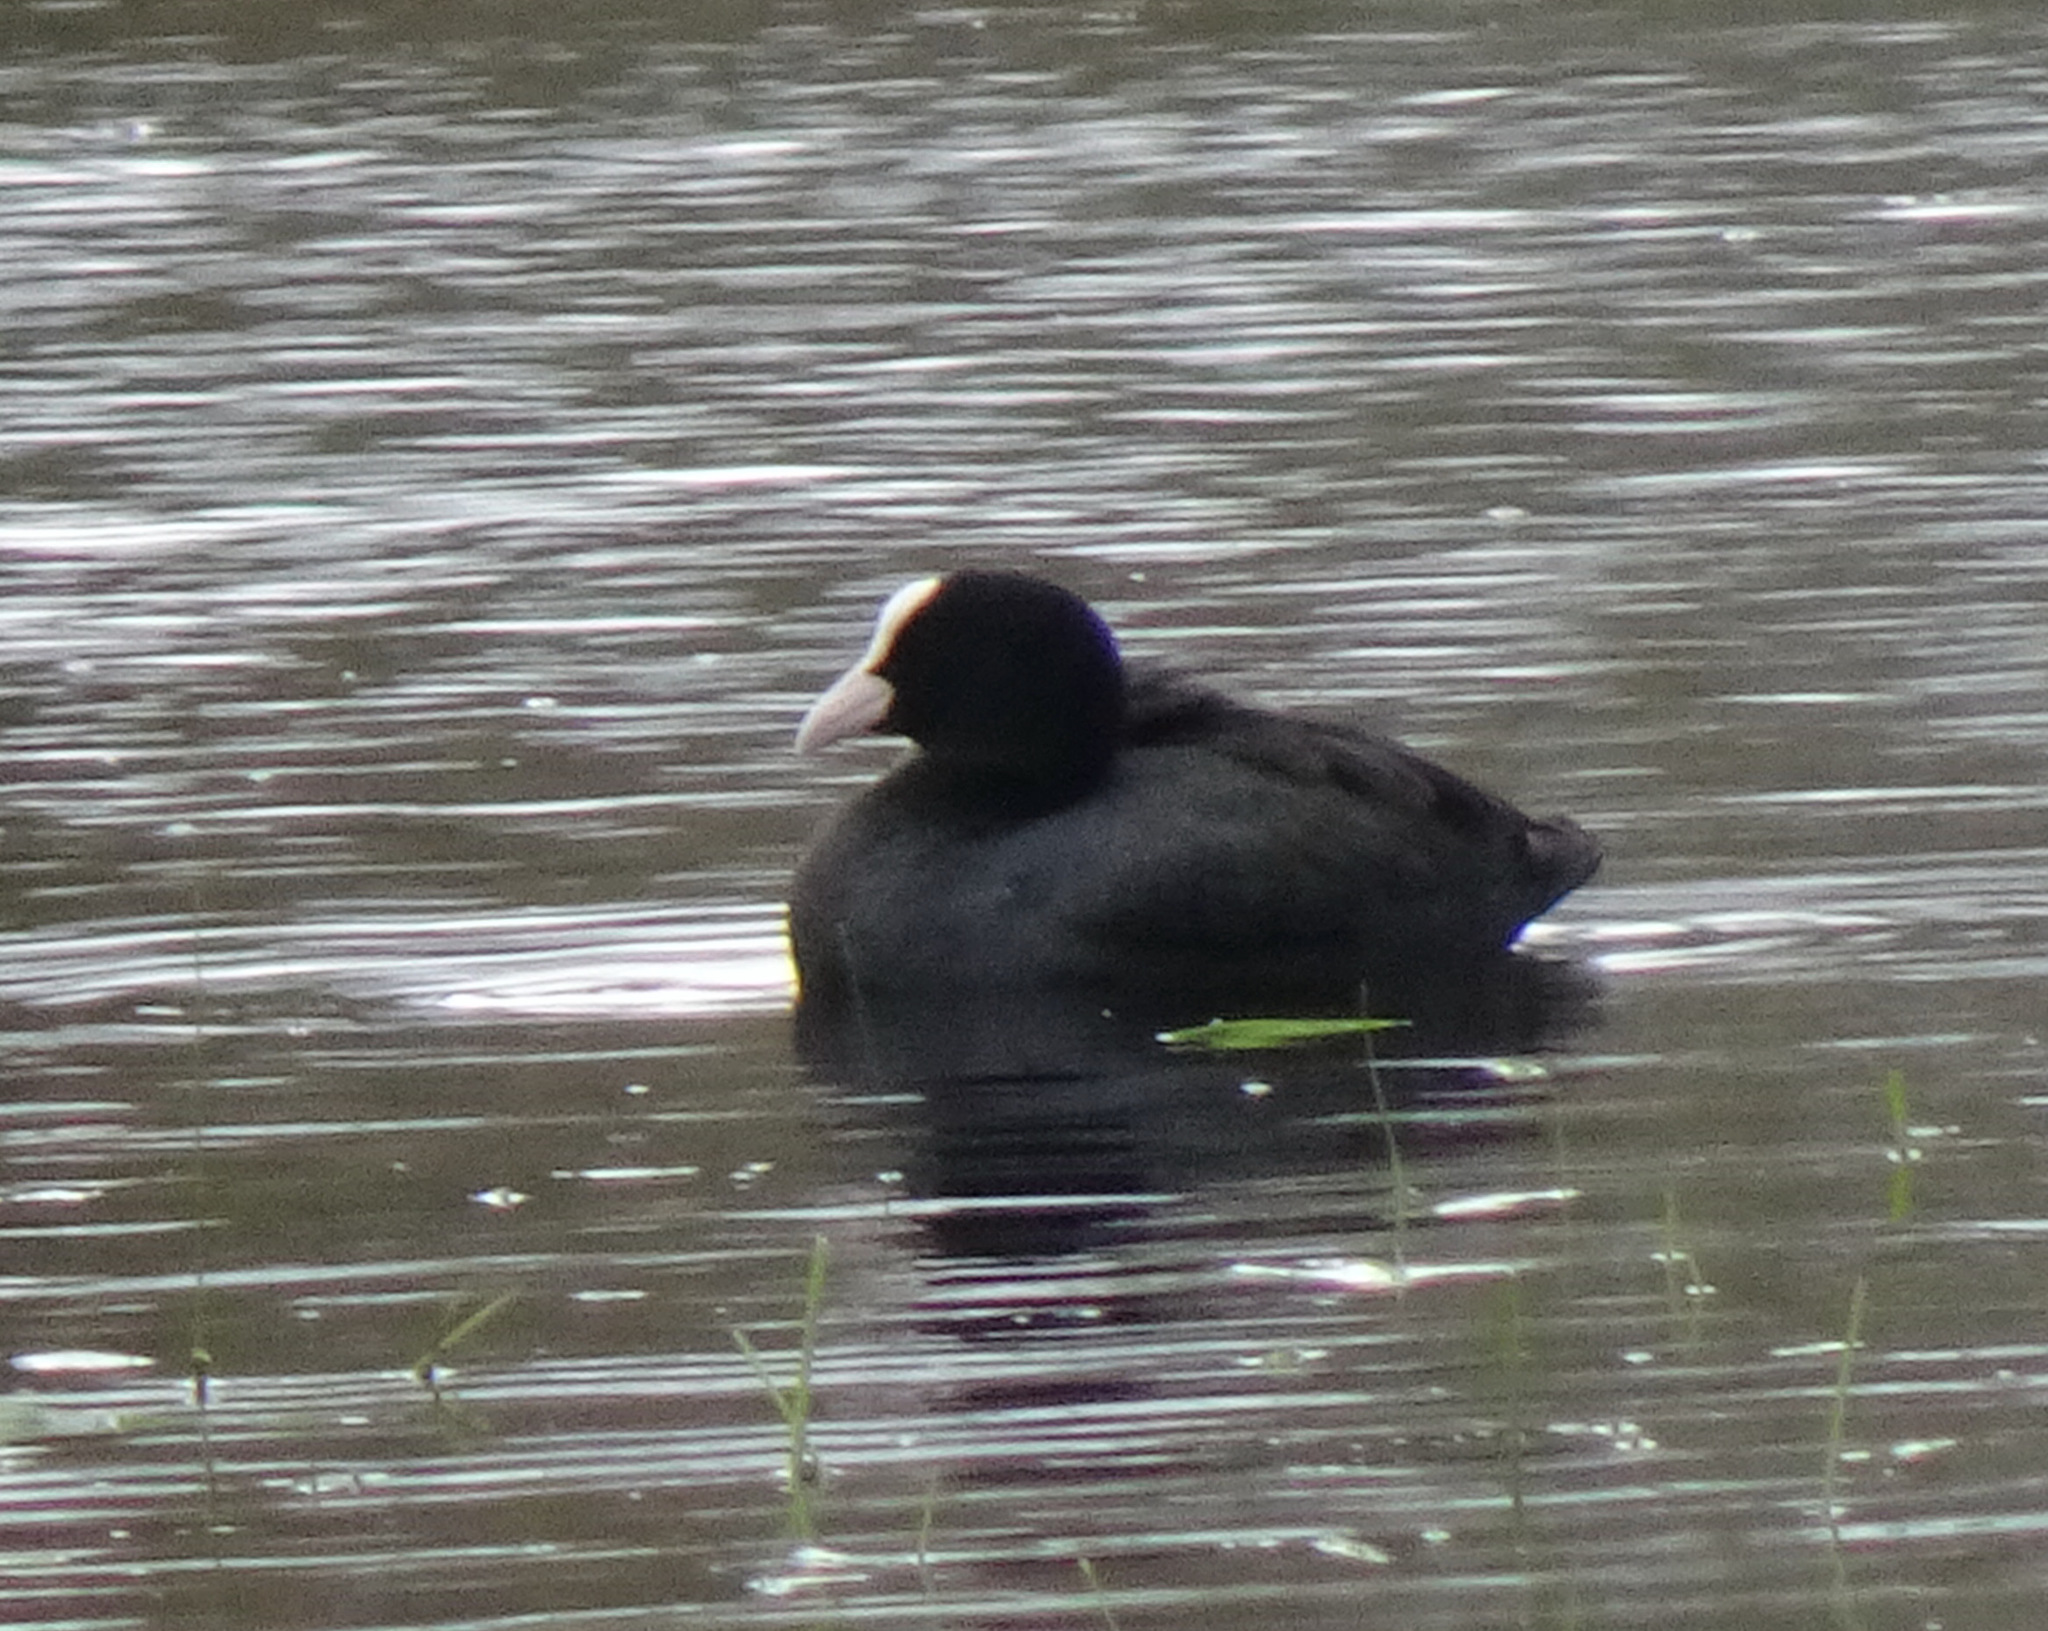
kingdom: Animalia
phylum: Chordata
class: Aves
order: Gruiformes
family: Rallidae
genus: Fulica
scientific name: Fulica atra
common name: Eurasian coot
